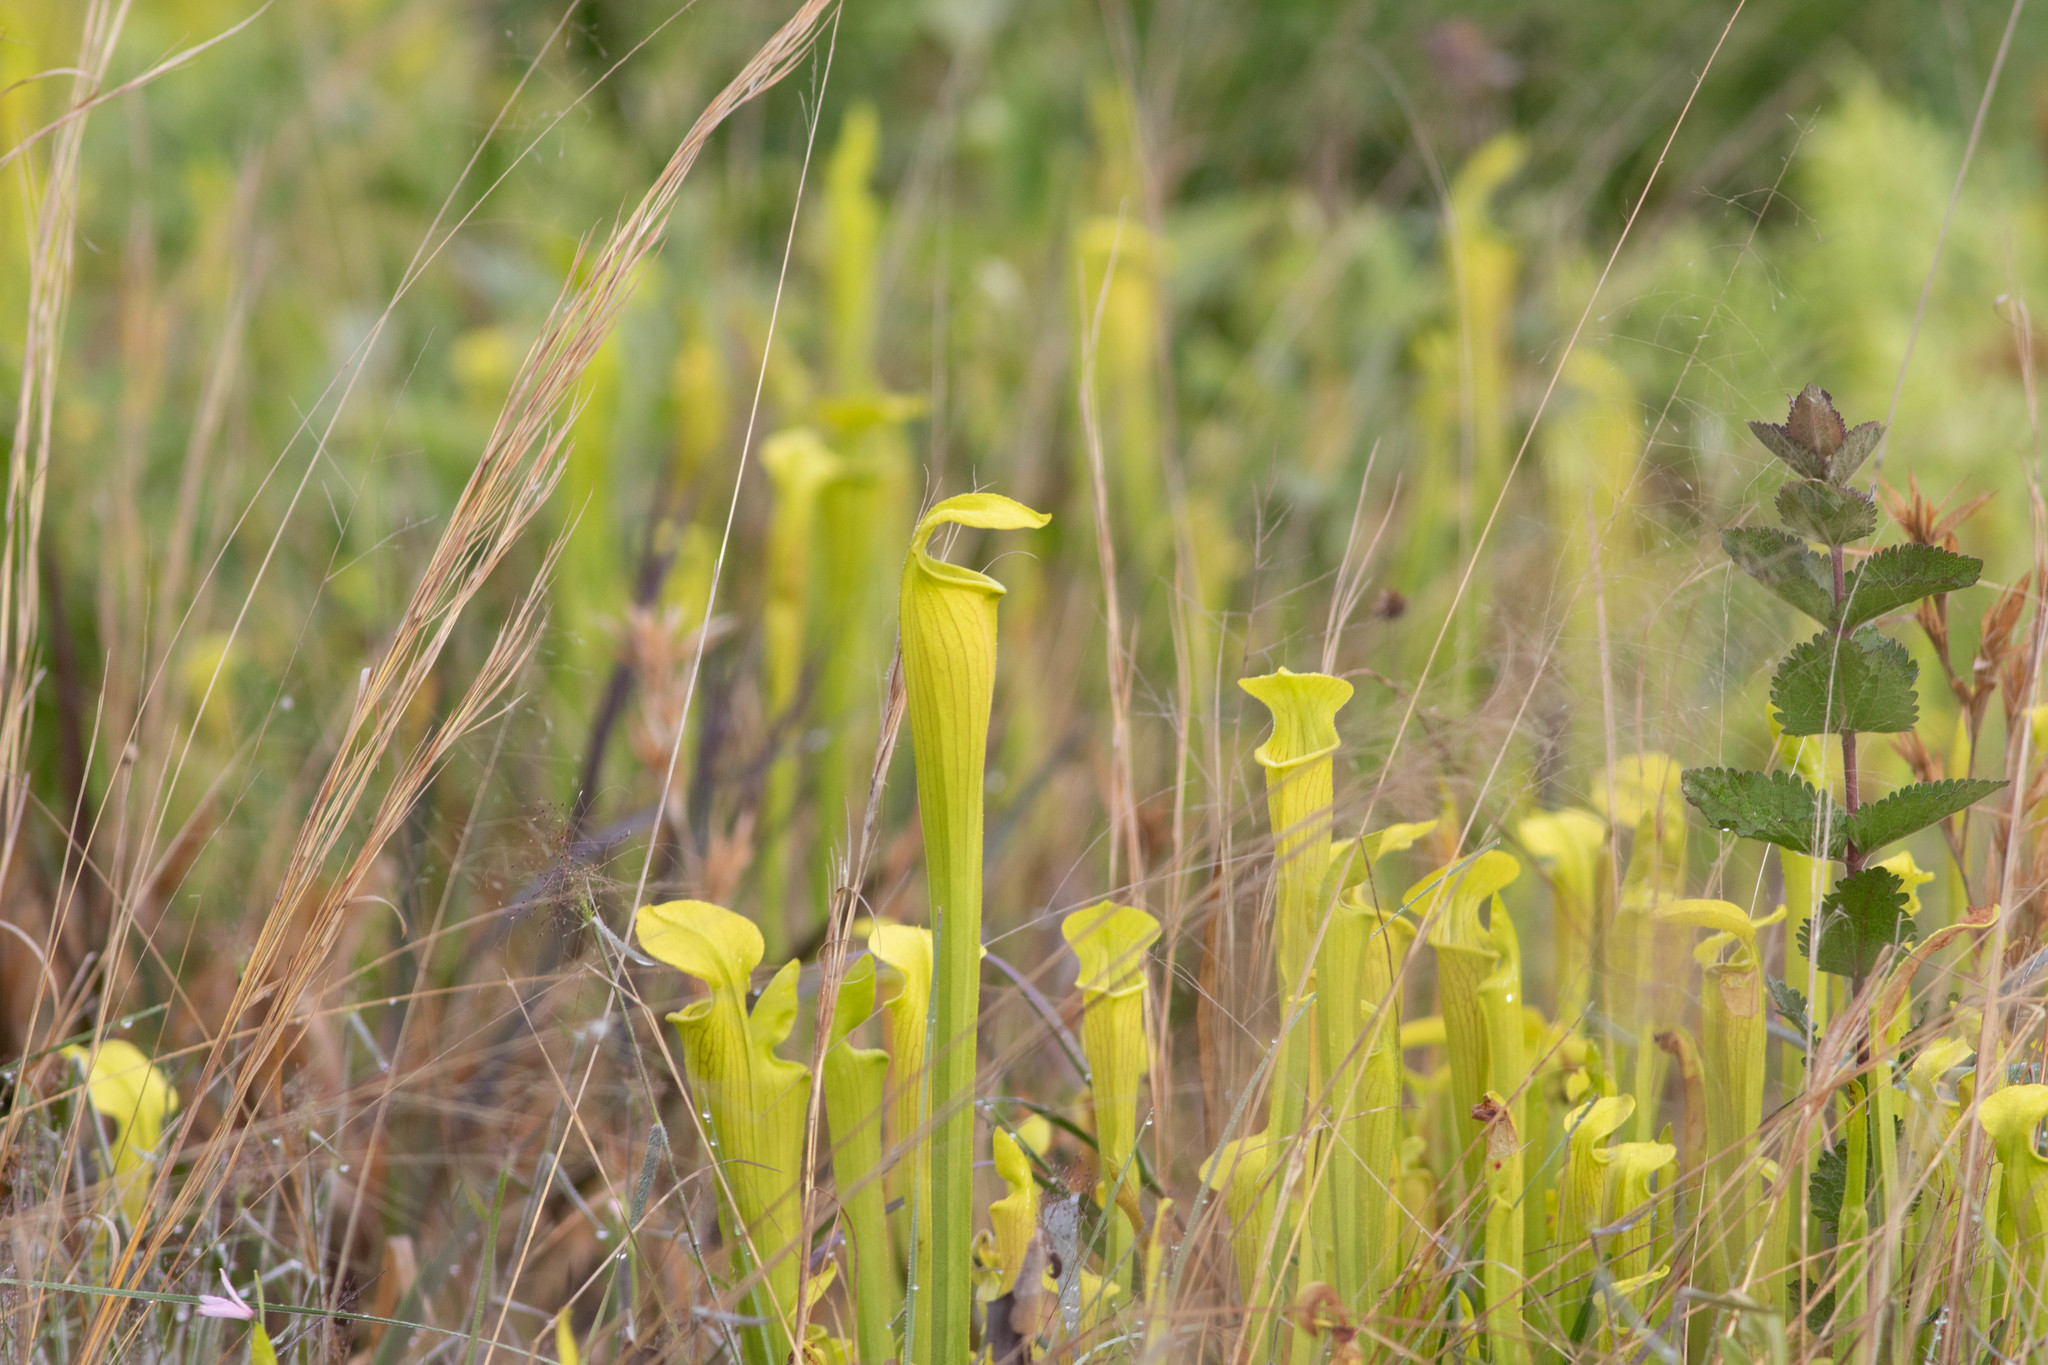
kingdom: Plantae
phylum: Tracheophyta
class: Magnoliopsida
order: Ericales
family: Sarraceniaceae
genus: Sarracenia
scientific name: Sarracenia alata
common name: Yellow trumpets
